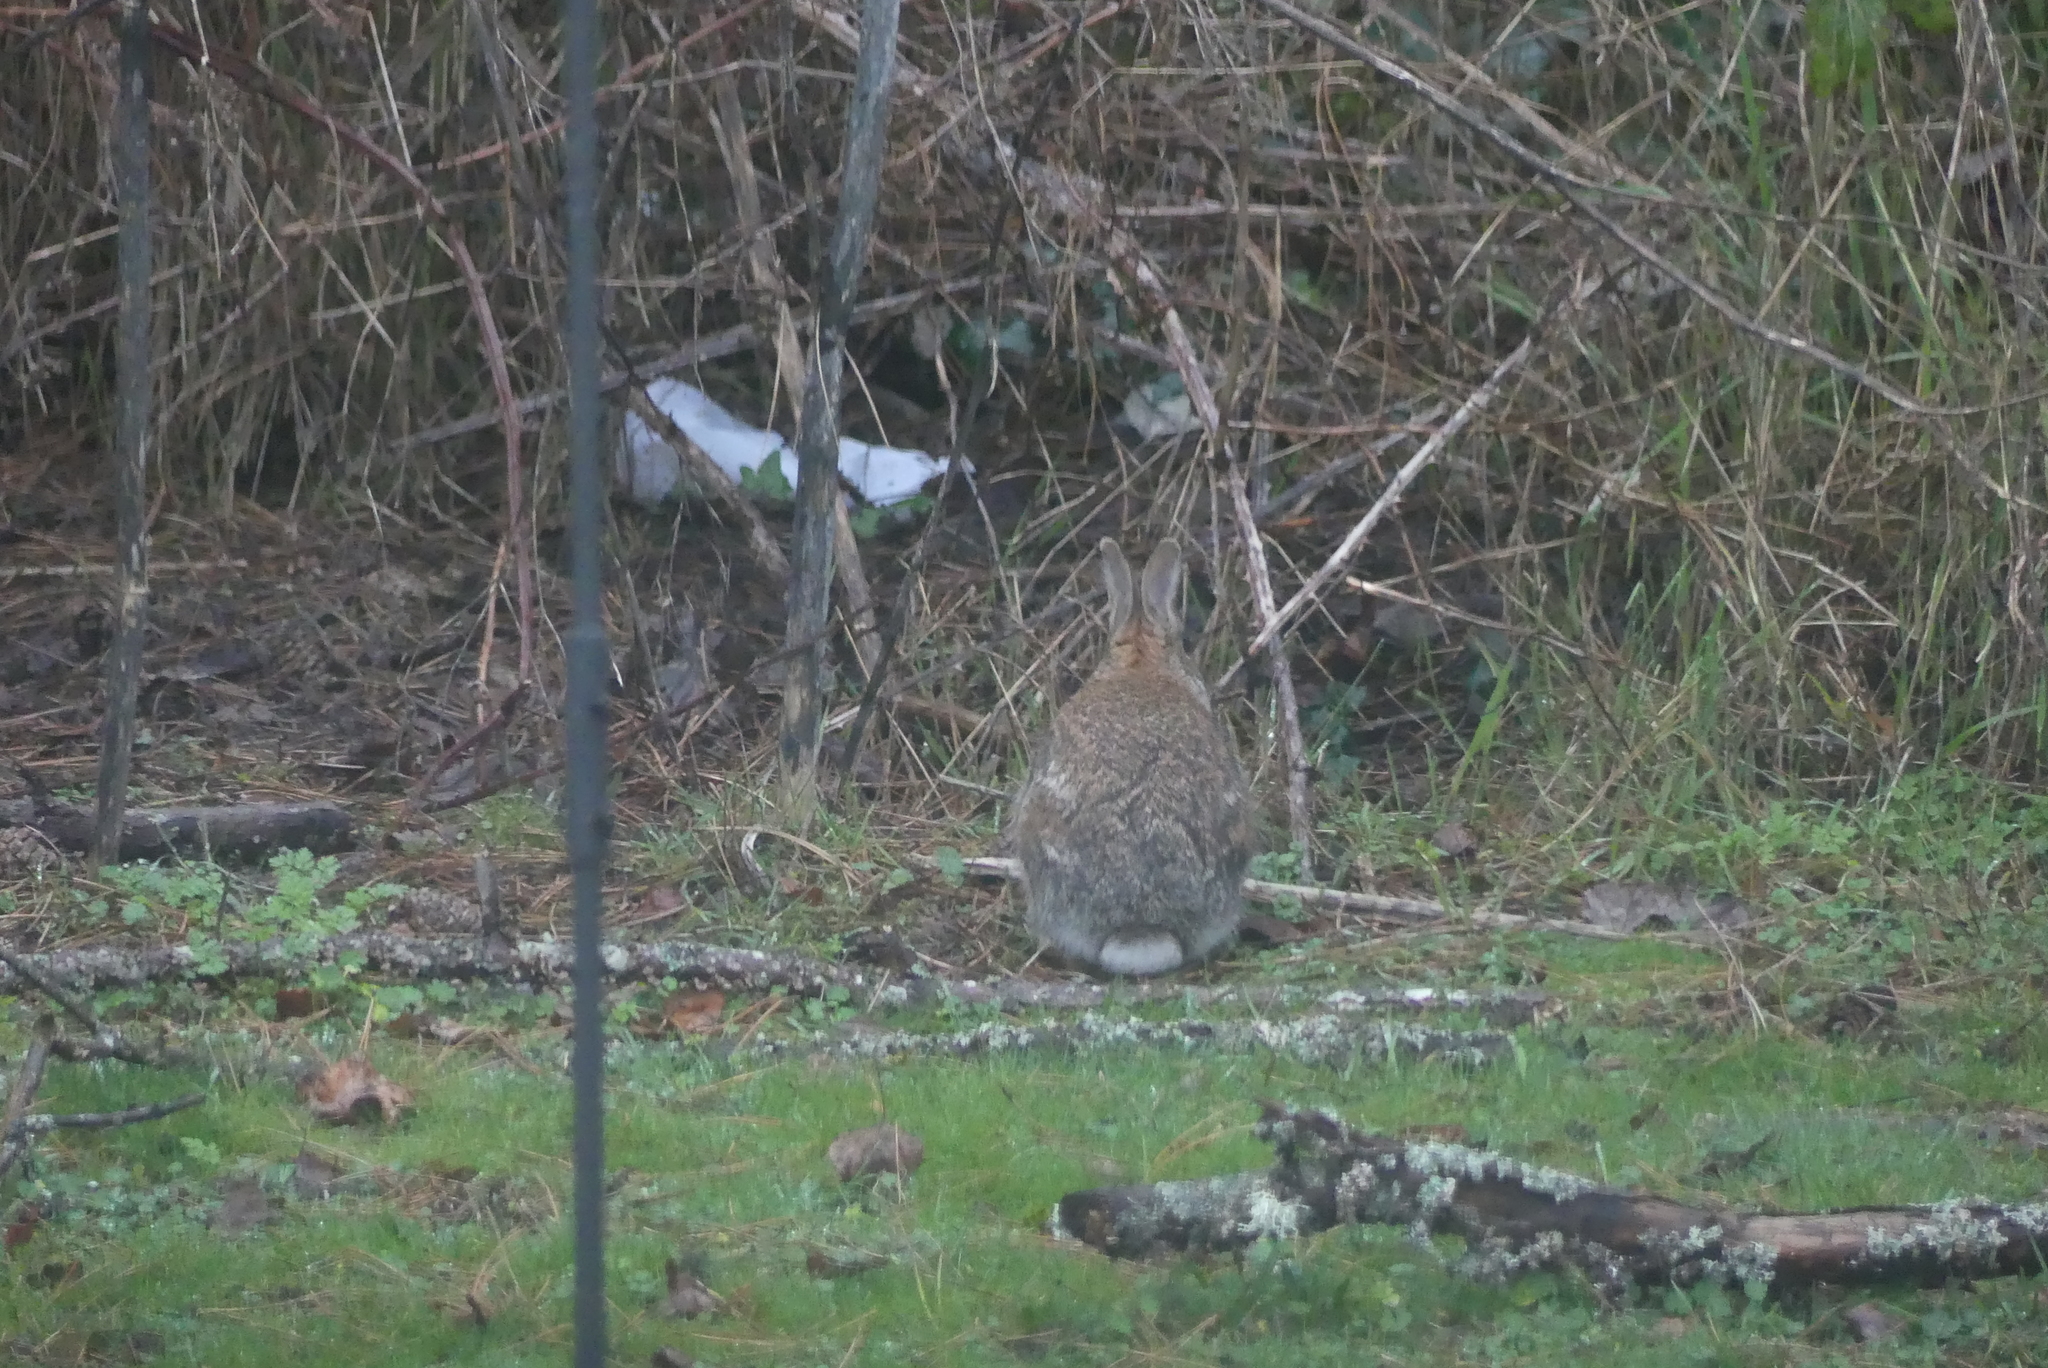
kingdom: Animalia
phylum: Chordata
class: Mammalia
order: Lagomorpha
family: Leporidae
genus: Sylvilagus
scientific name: Sylvilagus floridanus
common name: Eastern cottontail
